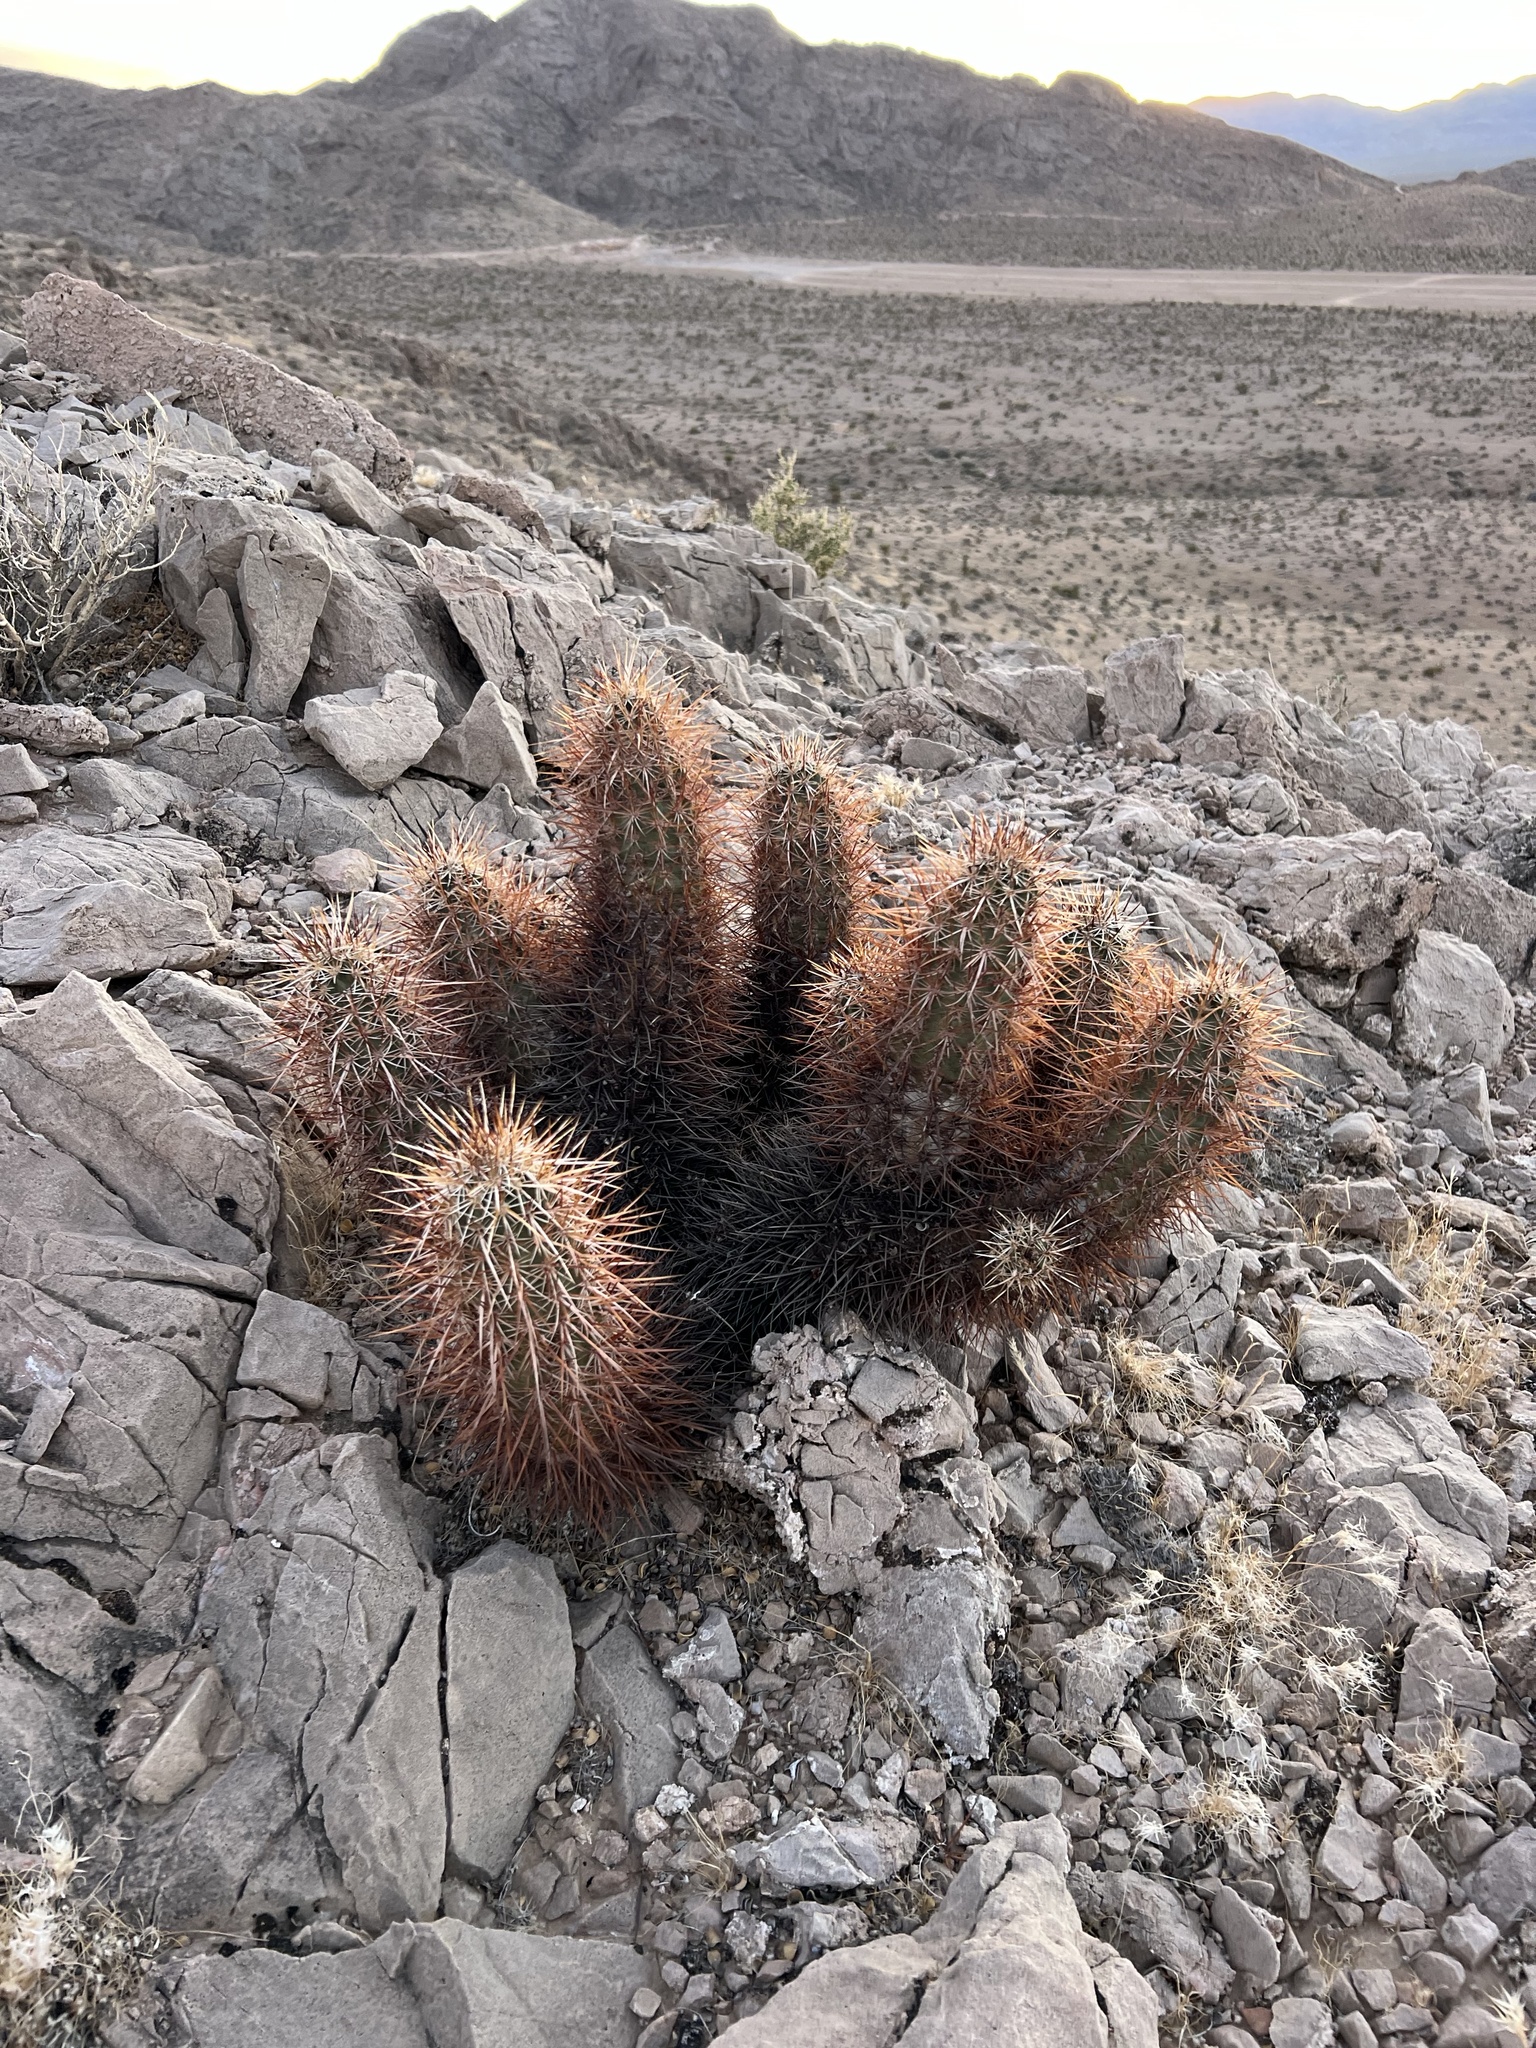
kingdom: Plantae
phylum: Tracheophyta
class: Magnoliopsida
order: Caryophyllales
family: Cactaceae
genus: Echinocereus
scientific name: Echinocereus engelmannii
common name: Engelmann's hedgehog cactus
